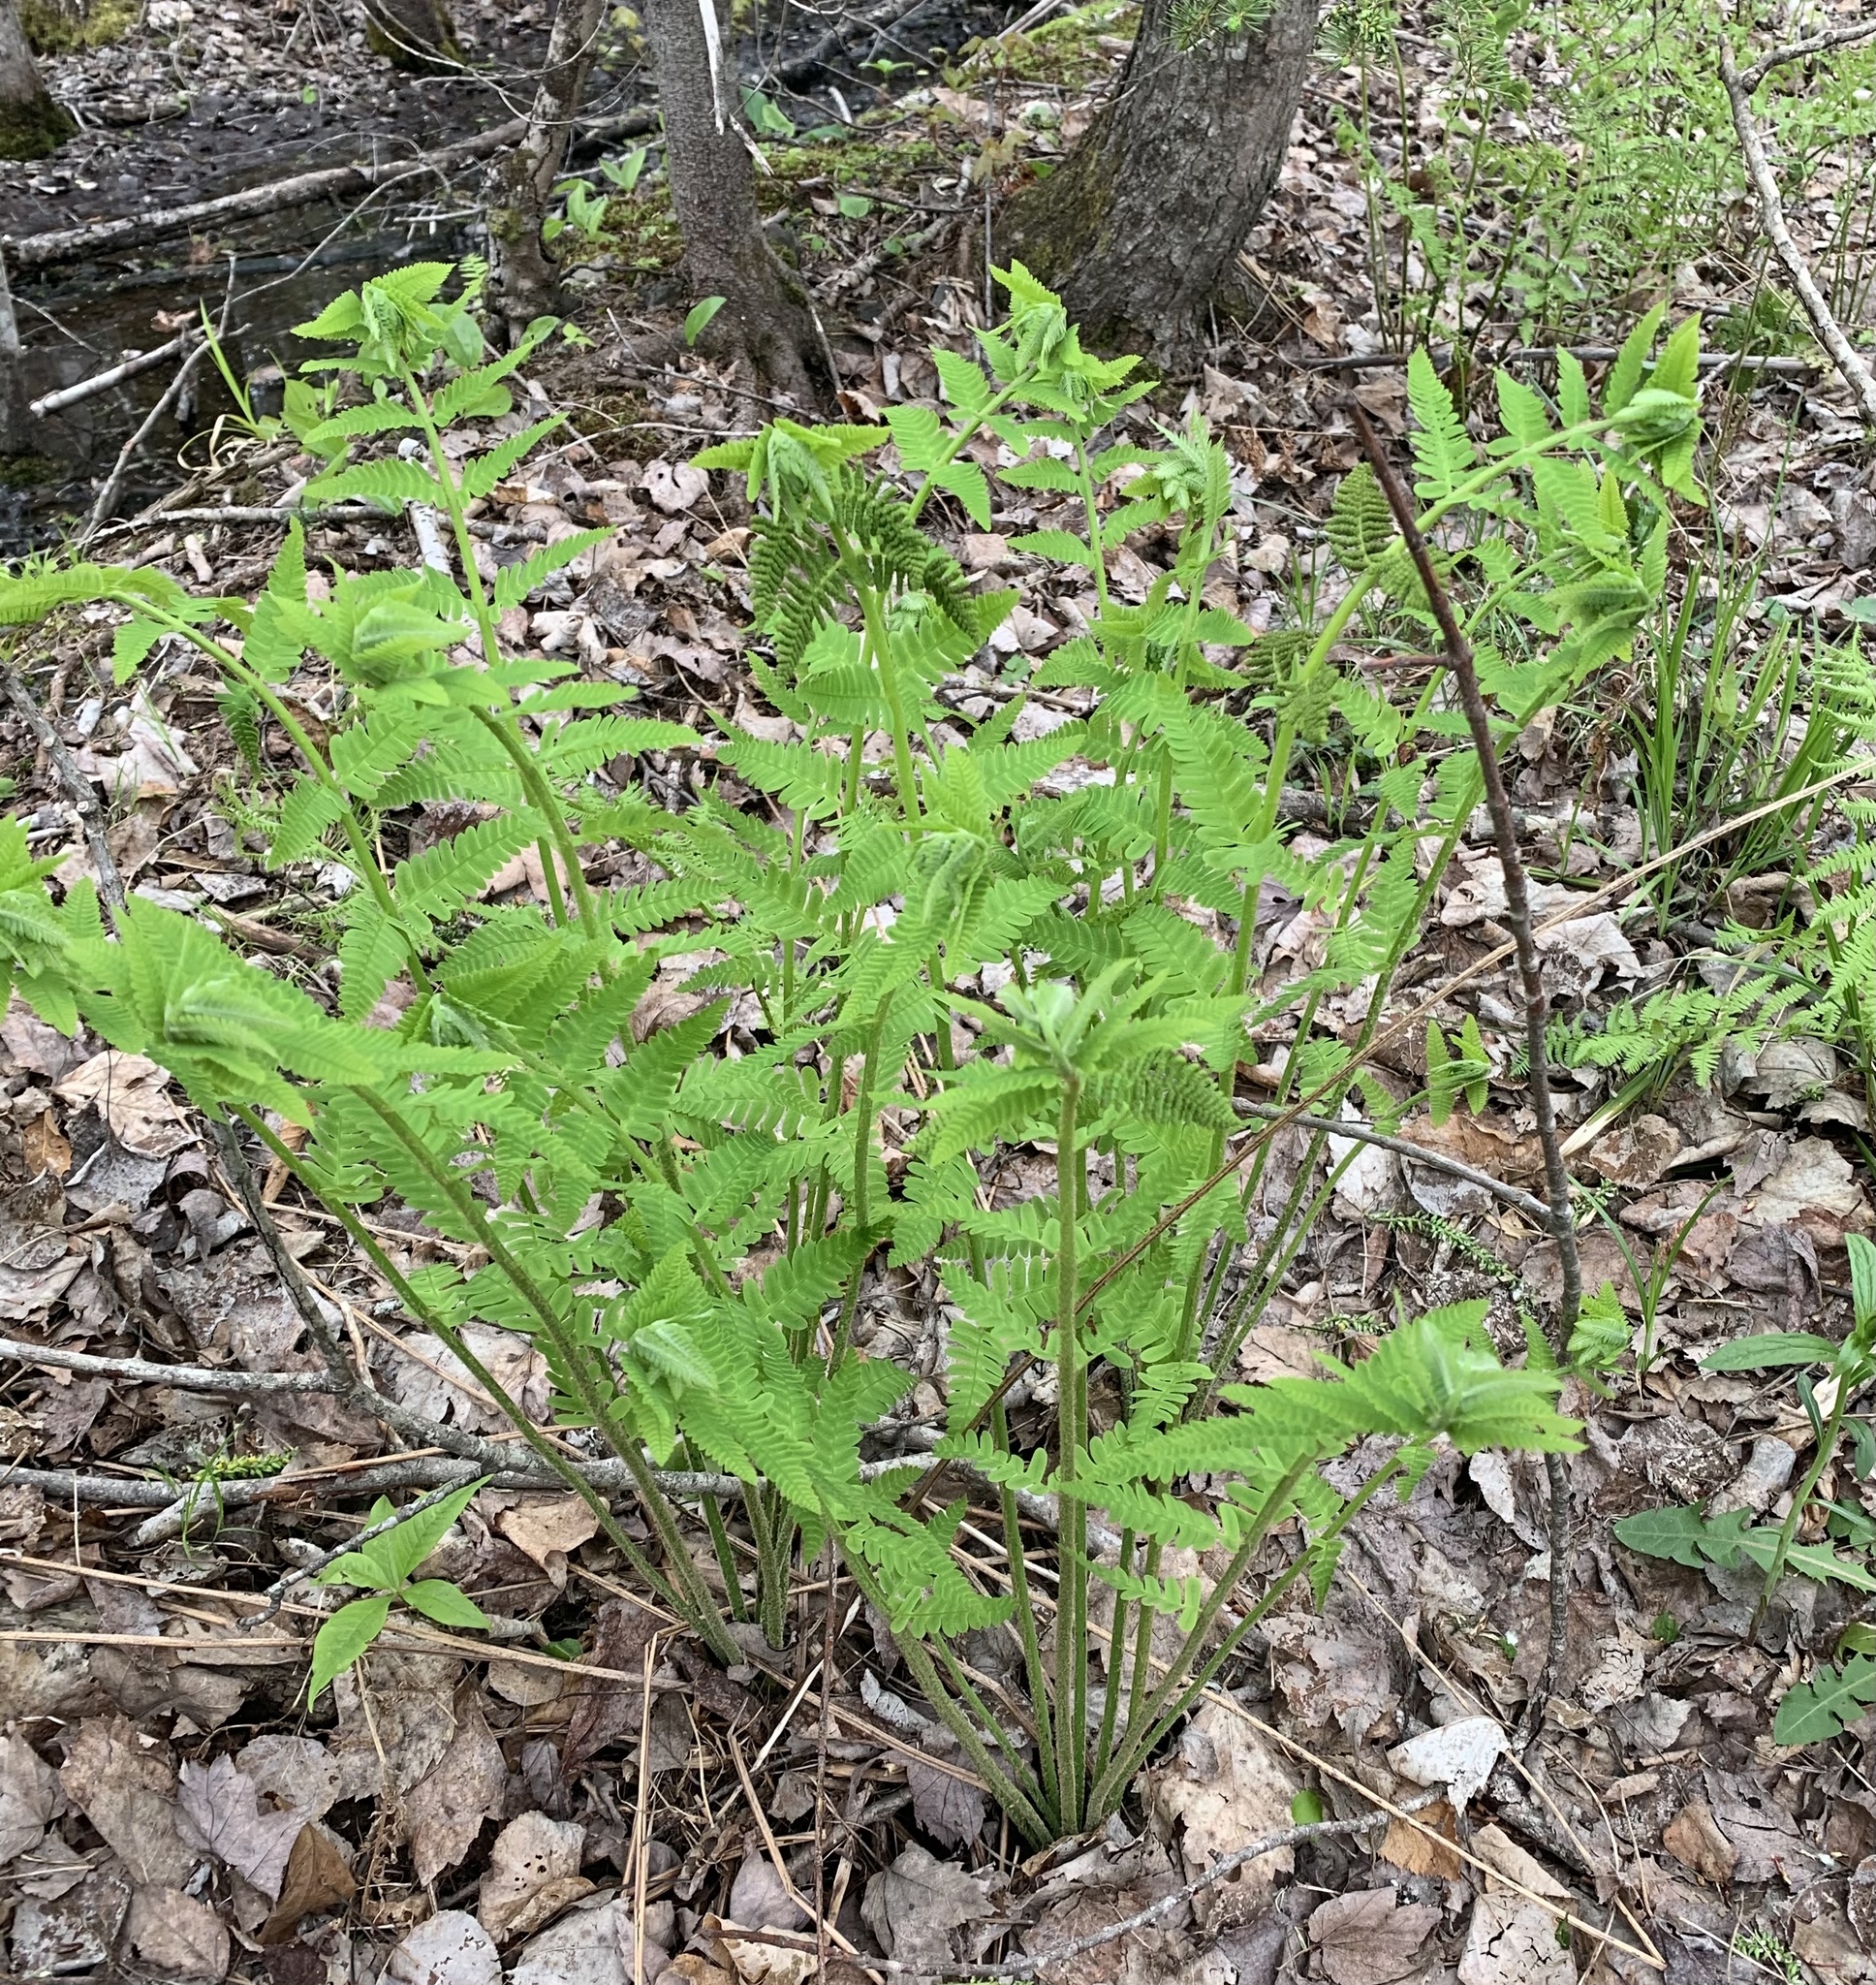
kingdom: Plantae
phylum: Tracheophyta
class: Polypodiopsida
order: Osmundales
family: Osmundaceae
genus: Claytosmunda
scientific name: Claytosmunda claytoniana
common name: Clayton's fern
